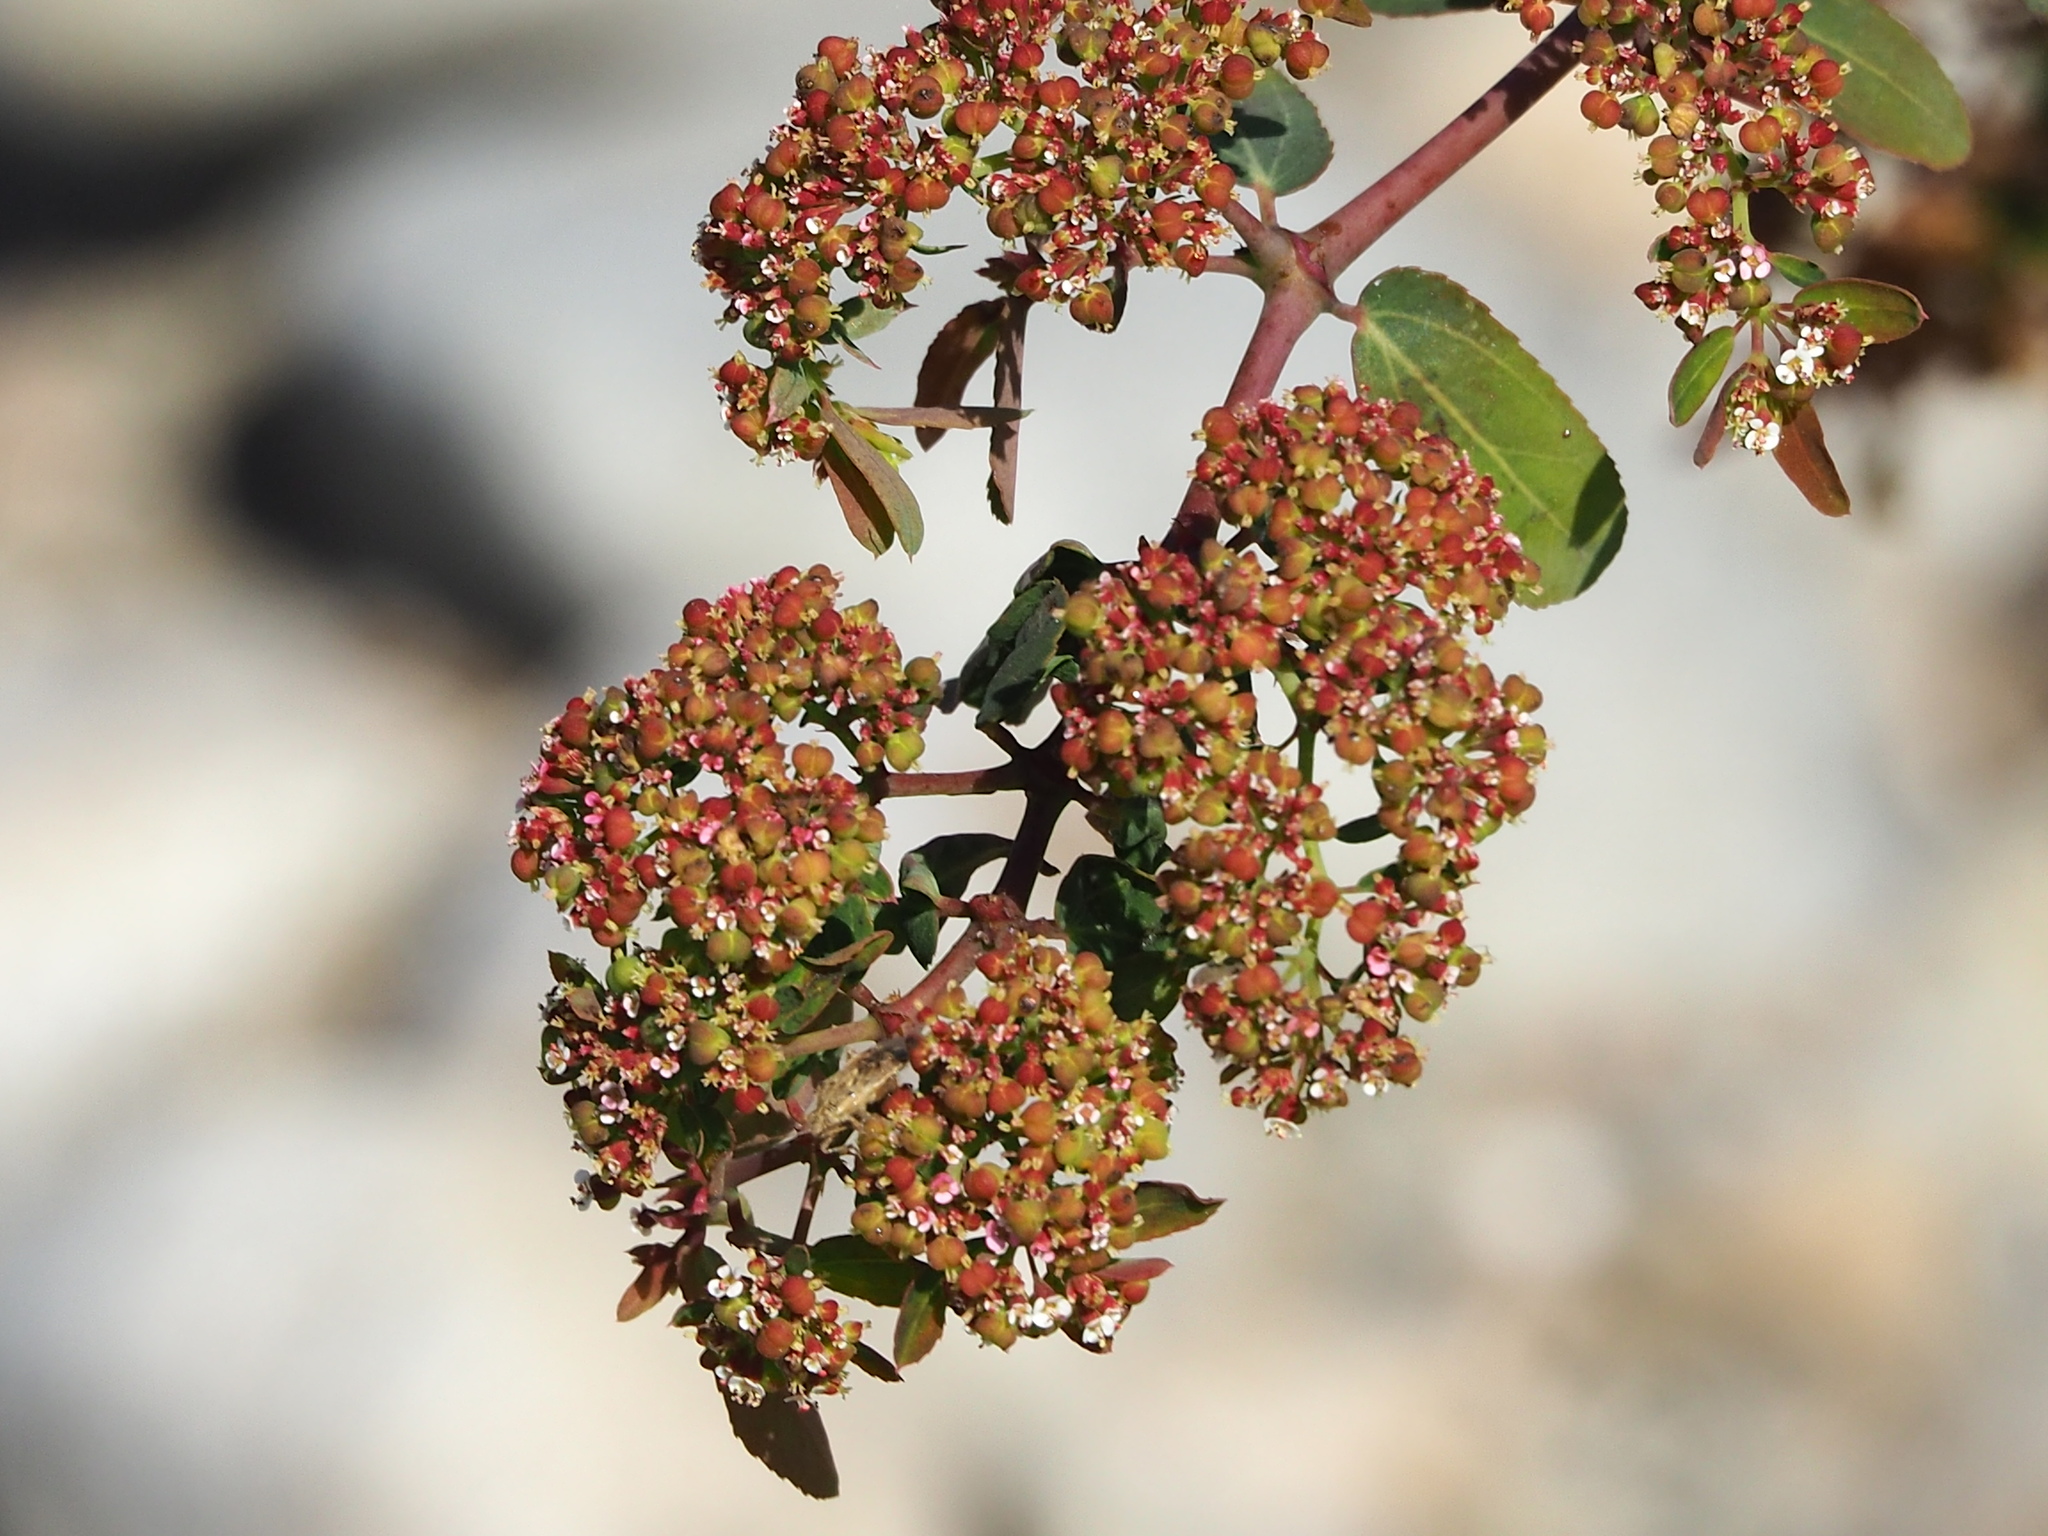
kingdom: Plantae
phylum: Tracheophyta
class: Magnoliopsida
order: Malpighiales
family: Euphorbiaceae
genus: Euphorbia
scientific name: Euphorbia hypericifolia
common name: Graceful sandmat
